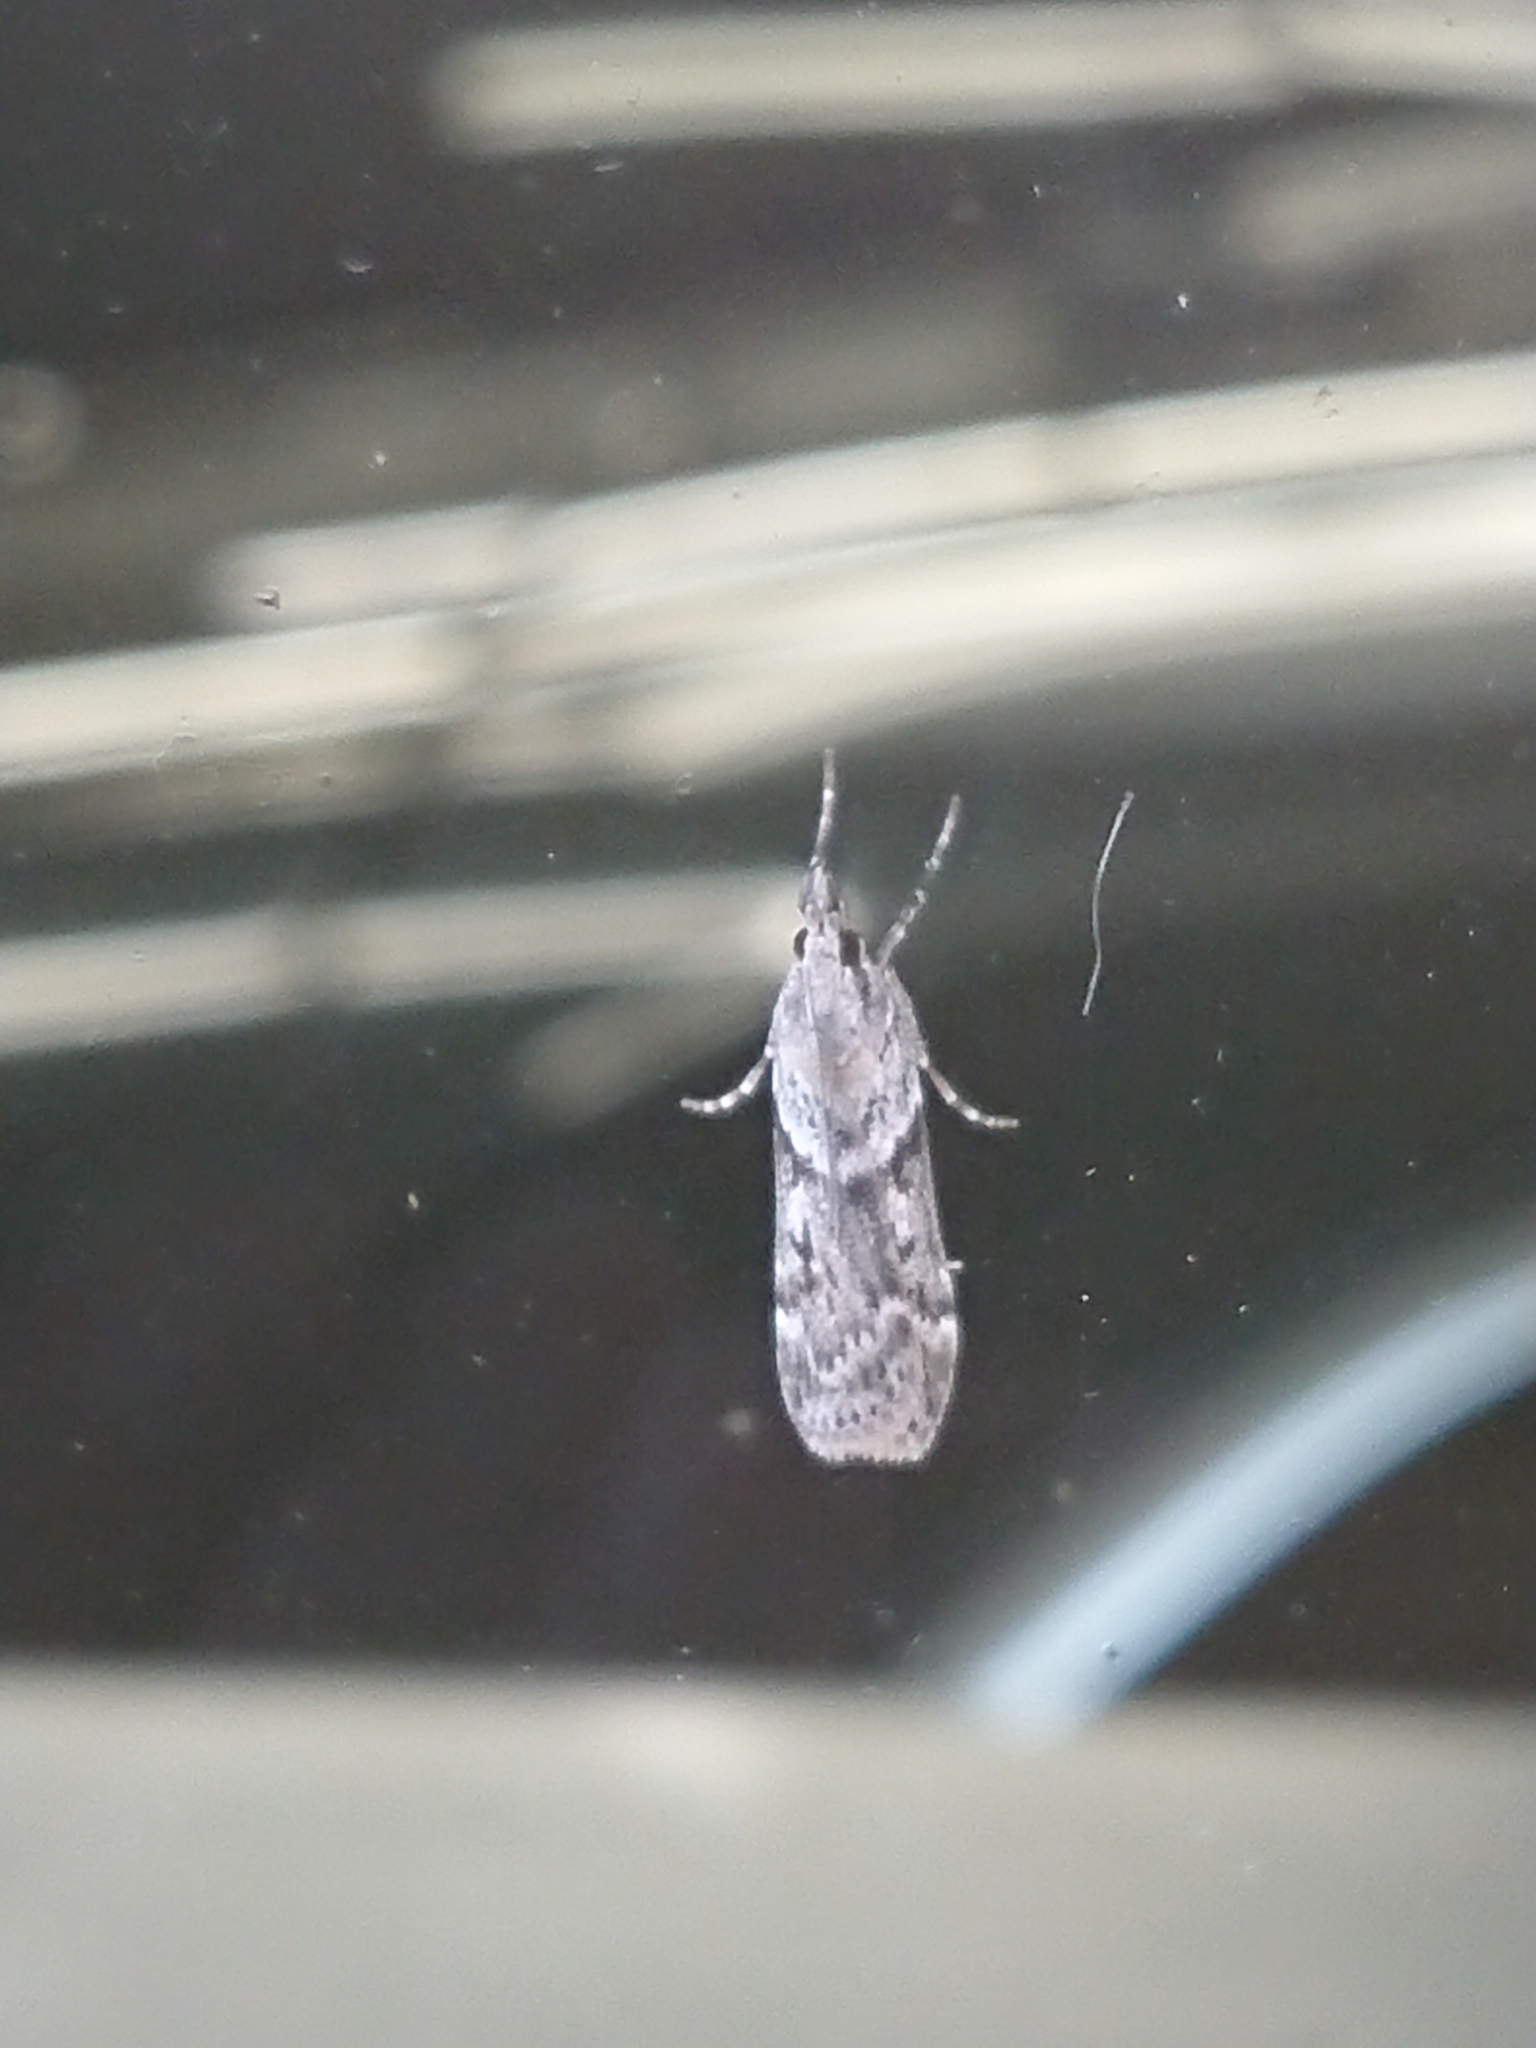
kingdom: Animalia
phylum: Arthropoda
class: Insecta
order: Lepidoptera
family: Crambidae
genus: Scoparia
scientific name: Scoparia halopis
